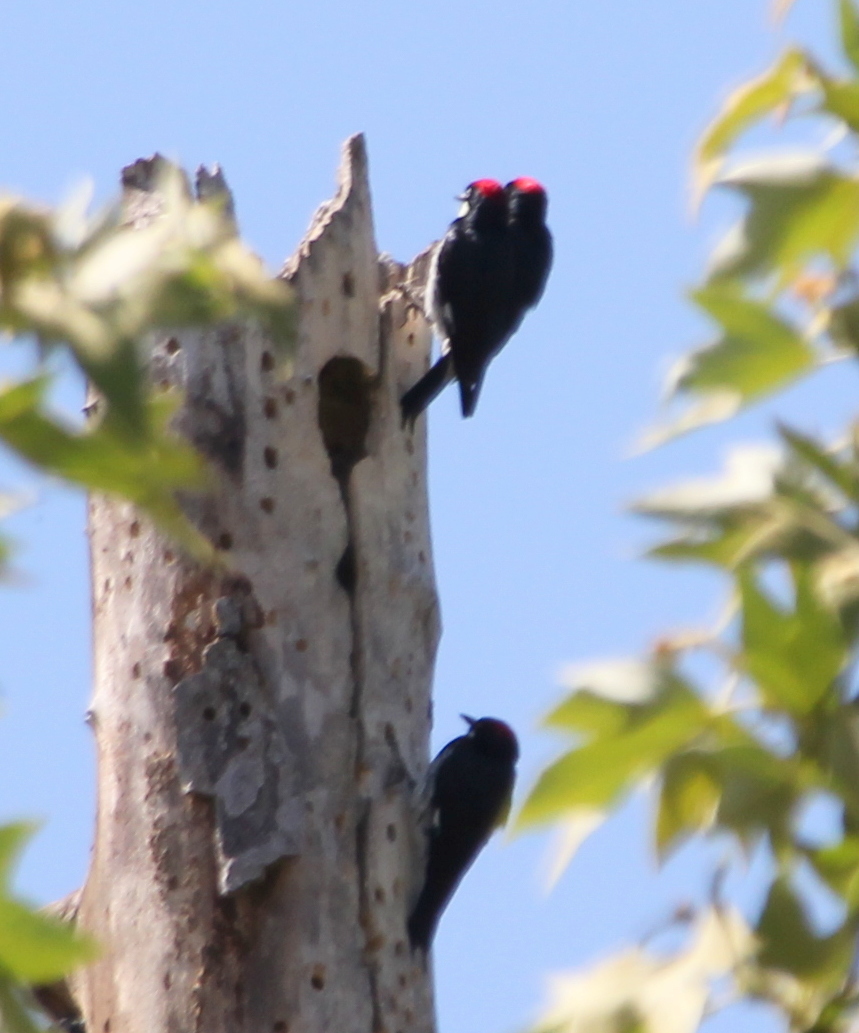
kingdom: Animalia
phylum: Chordata
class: Aves
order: Piciformes
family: Picidae
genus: Melanerpes
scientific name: Melanerpes formicivorus
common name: Acorn woodpecker
